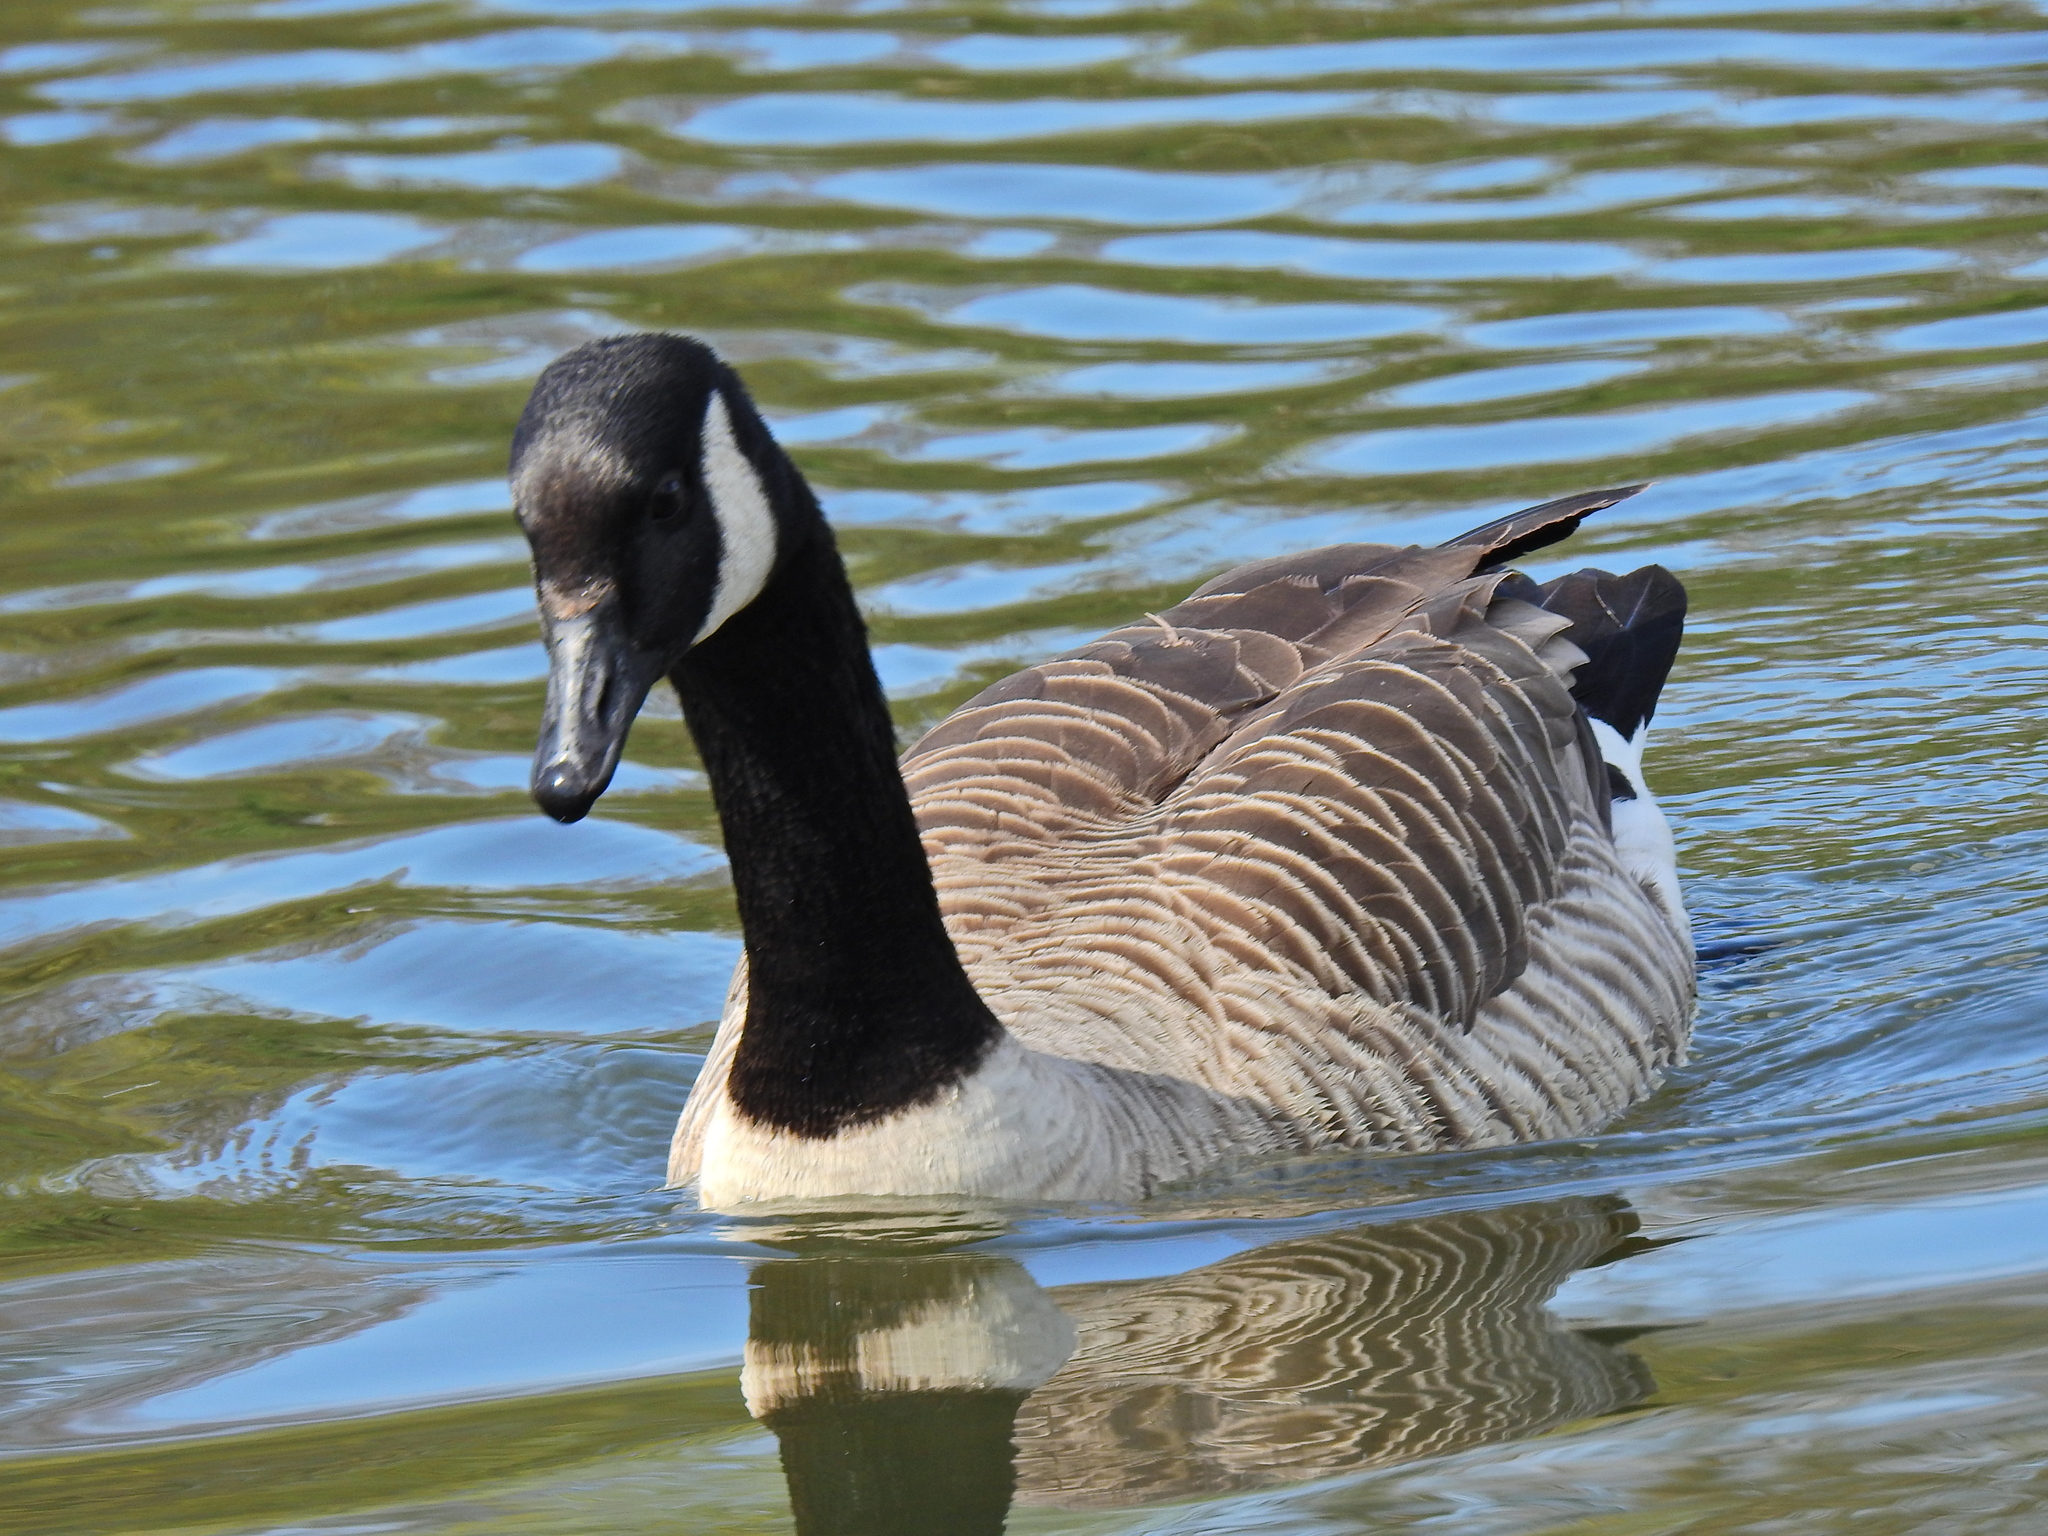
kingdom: Animalia
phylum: Chordata
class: Aves
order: Anseriformes
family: Anatidae
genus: Branta
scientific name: Branta canadensis
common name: Canada goose
